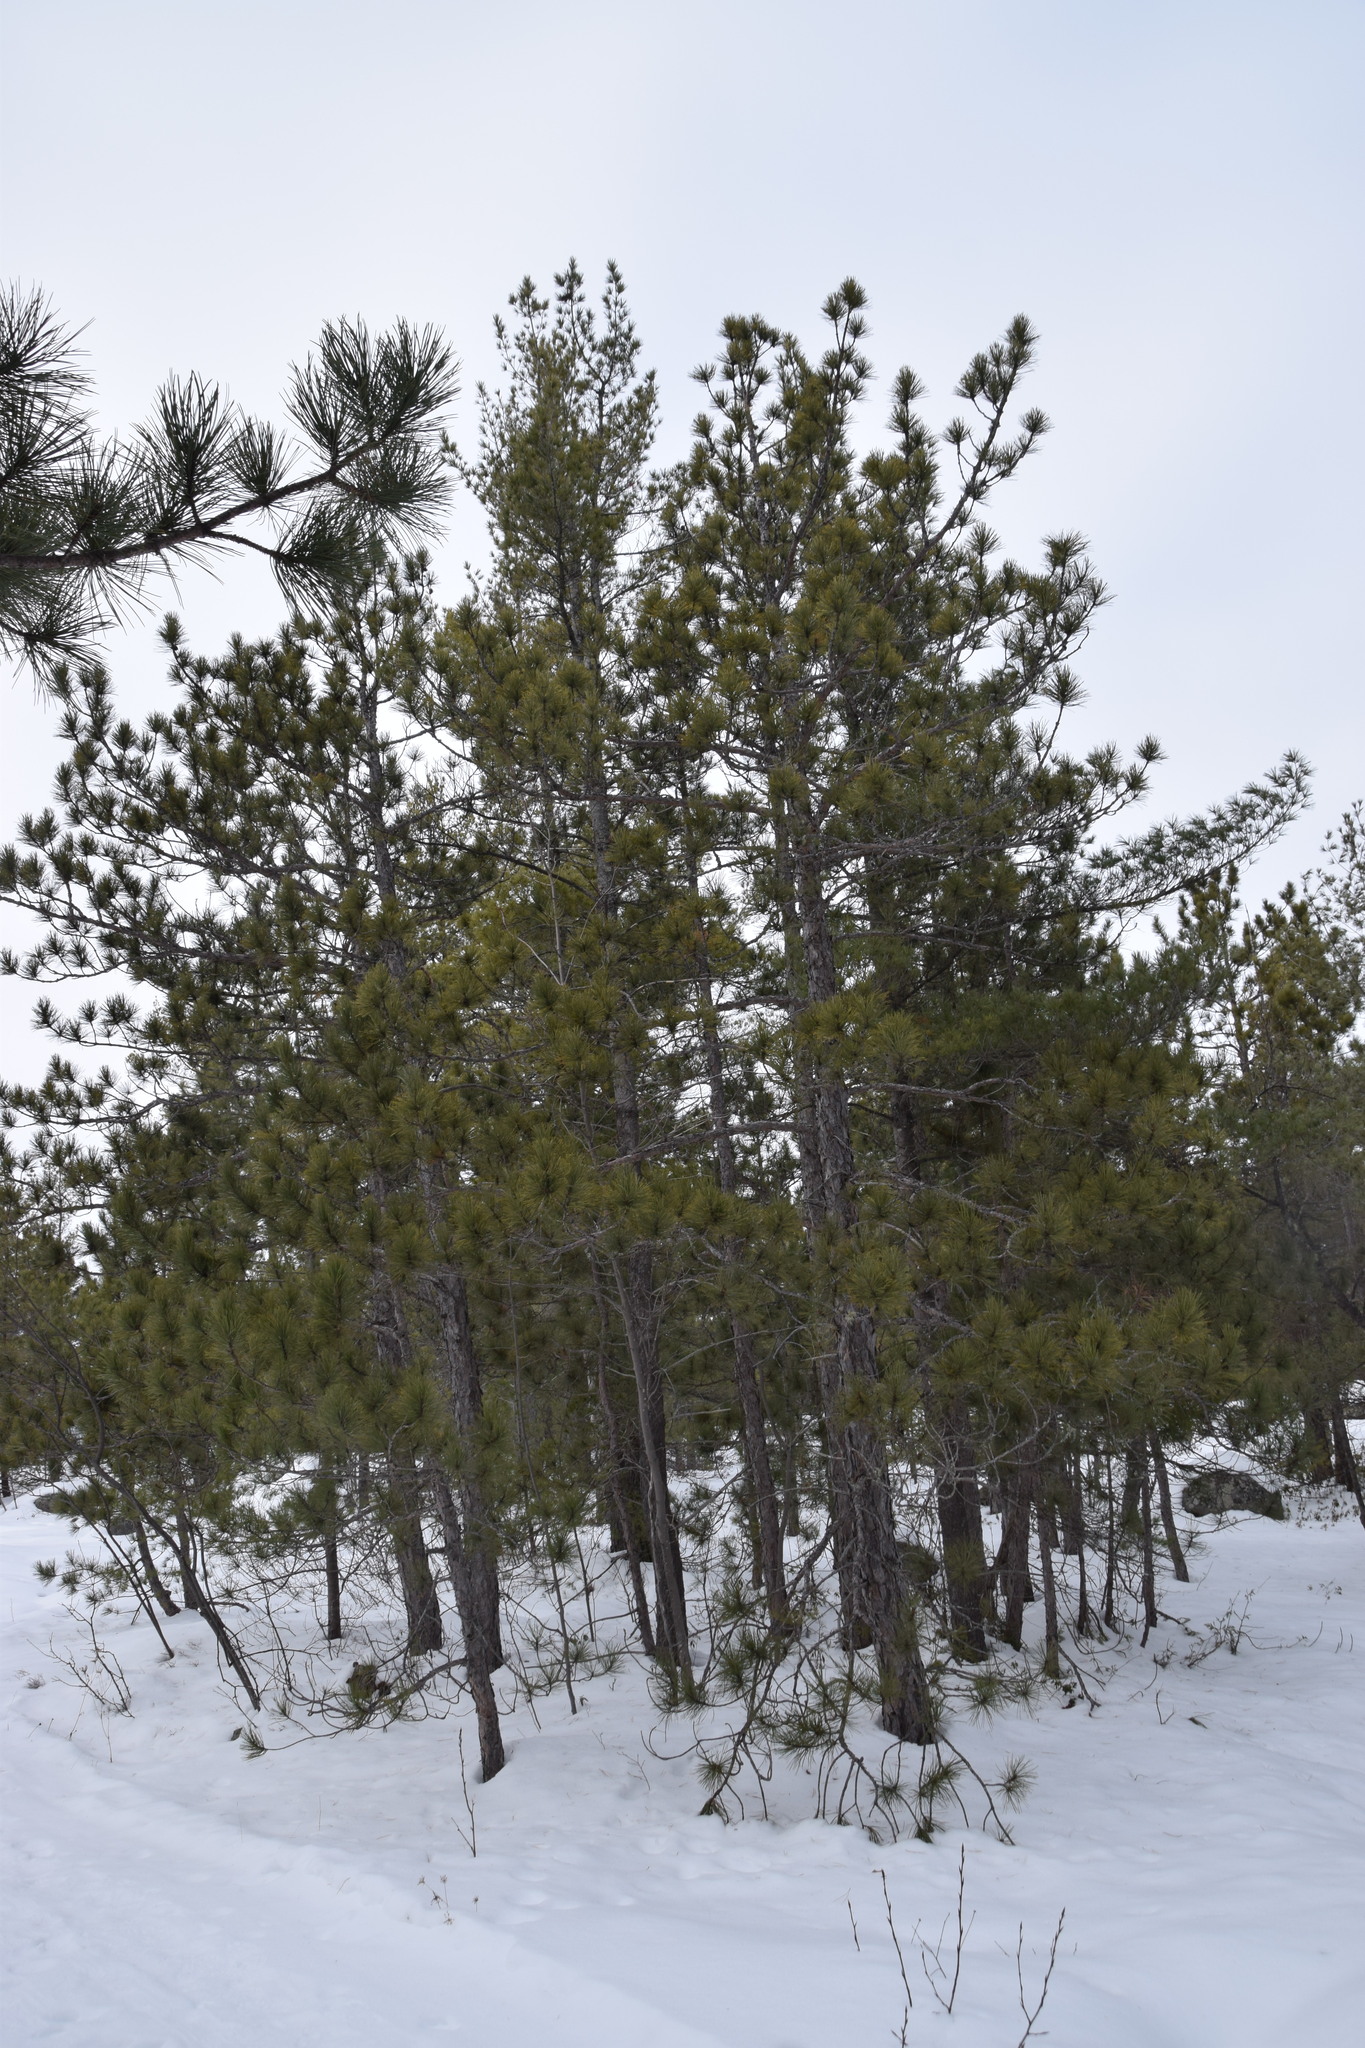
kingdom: Plantae
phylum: Tracheophyta
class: Pinopsida
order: Pinales
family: Pinaceae
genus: Pinus
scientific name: Pinus resinosa
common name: Norway pine
